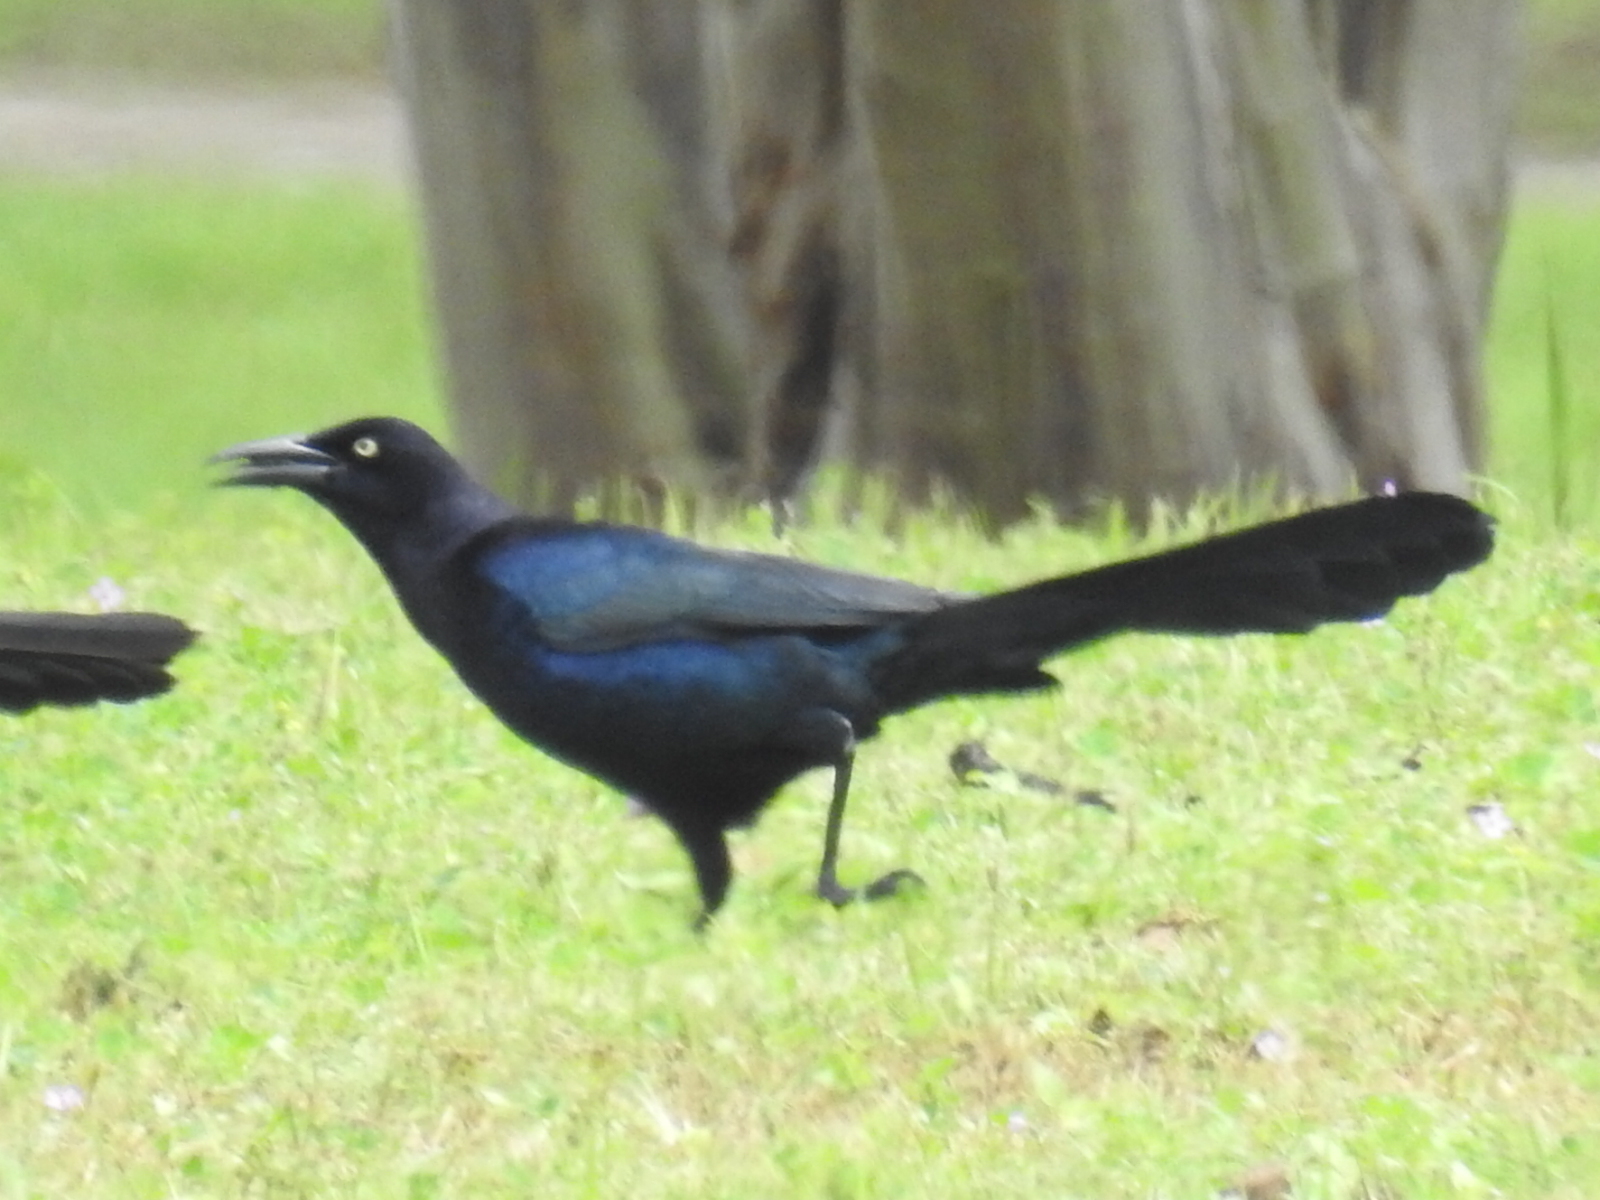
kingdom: Animalia
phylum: Chordata
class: Aves
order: Passeriformes
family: Icteridae
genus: Quiscalus
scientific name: Quiscalus mexicanus
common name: Great-tailed grackle
